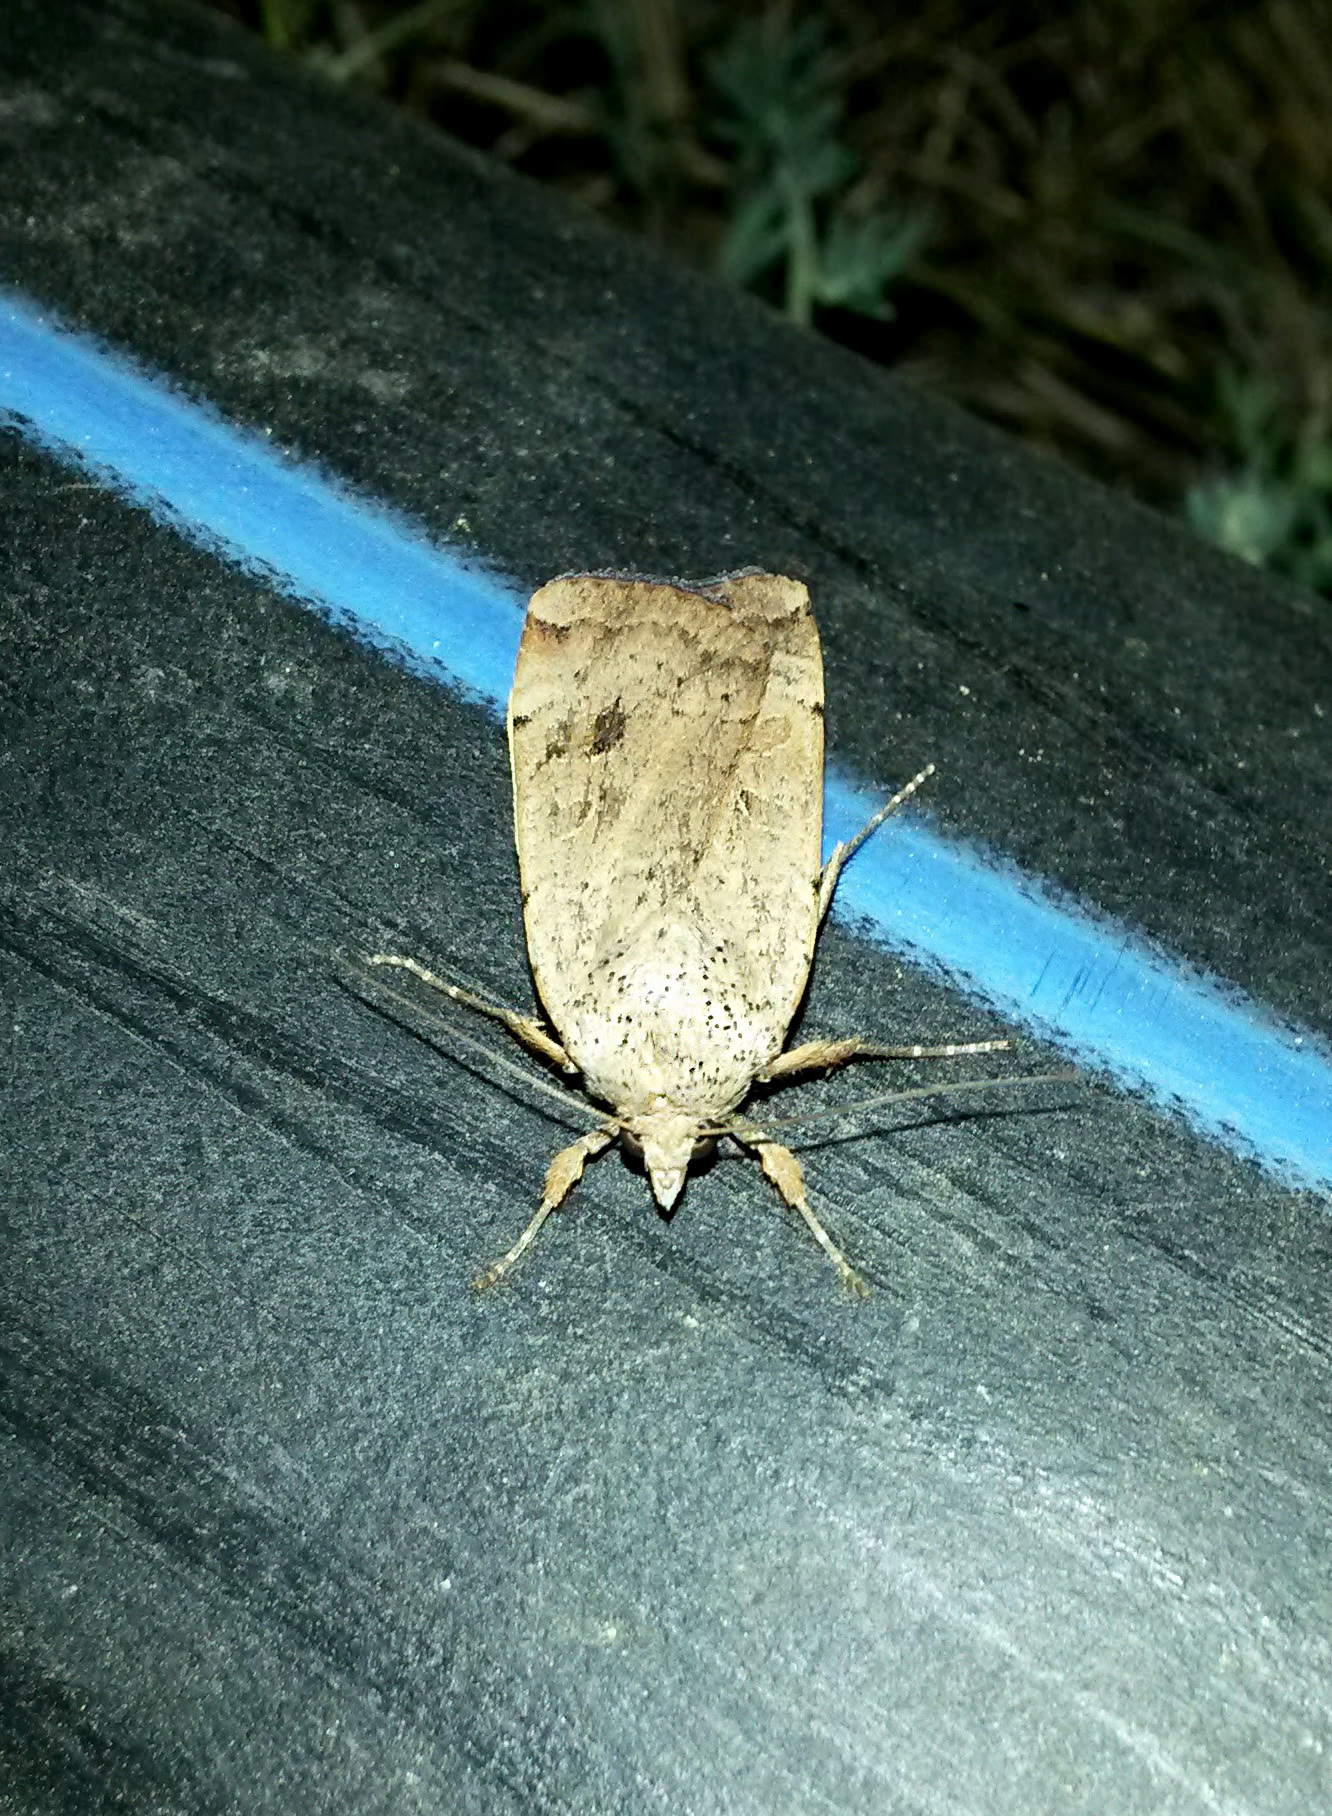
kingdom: Animalia
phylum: Arthropoda
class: Insecta
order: Lepidoptera
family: Noctuidae
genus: Noctua
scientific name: Noctua interposita
